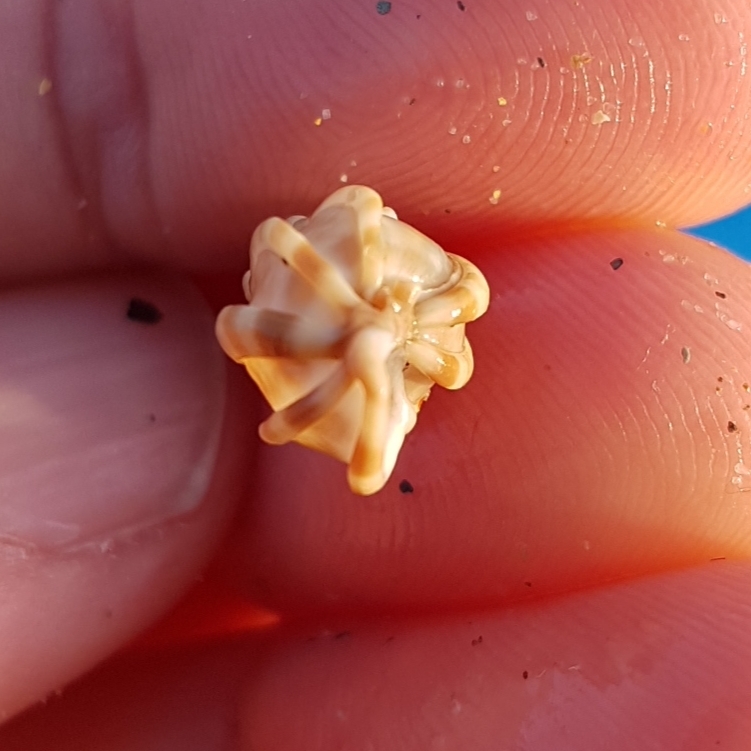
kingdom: Animalia
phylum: Mollusca
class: Gastropoda
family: Epitoniidae
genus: Epitonium
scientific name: Epitonium clathrus
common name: Common wentletrap
